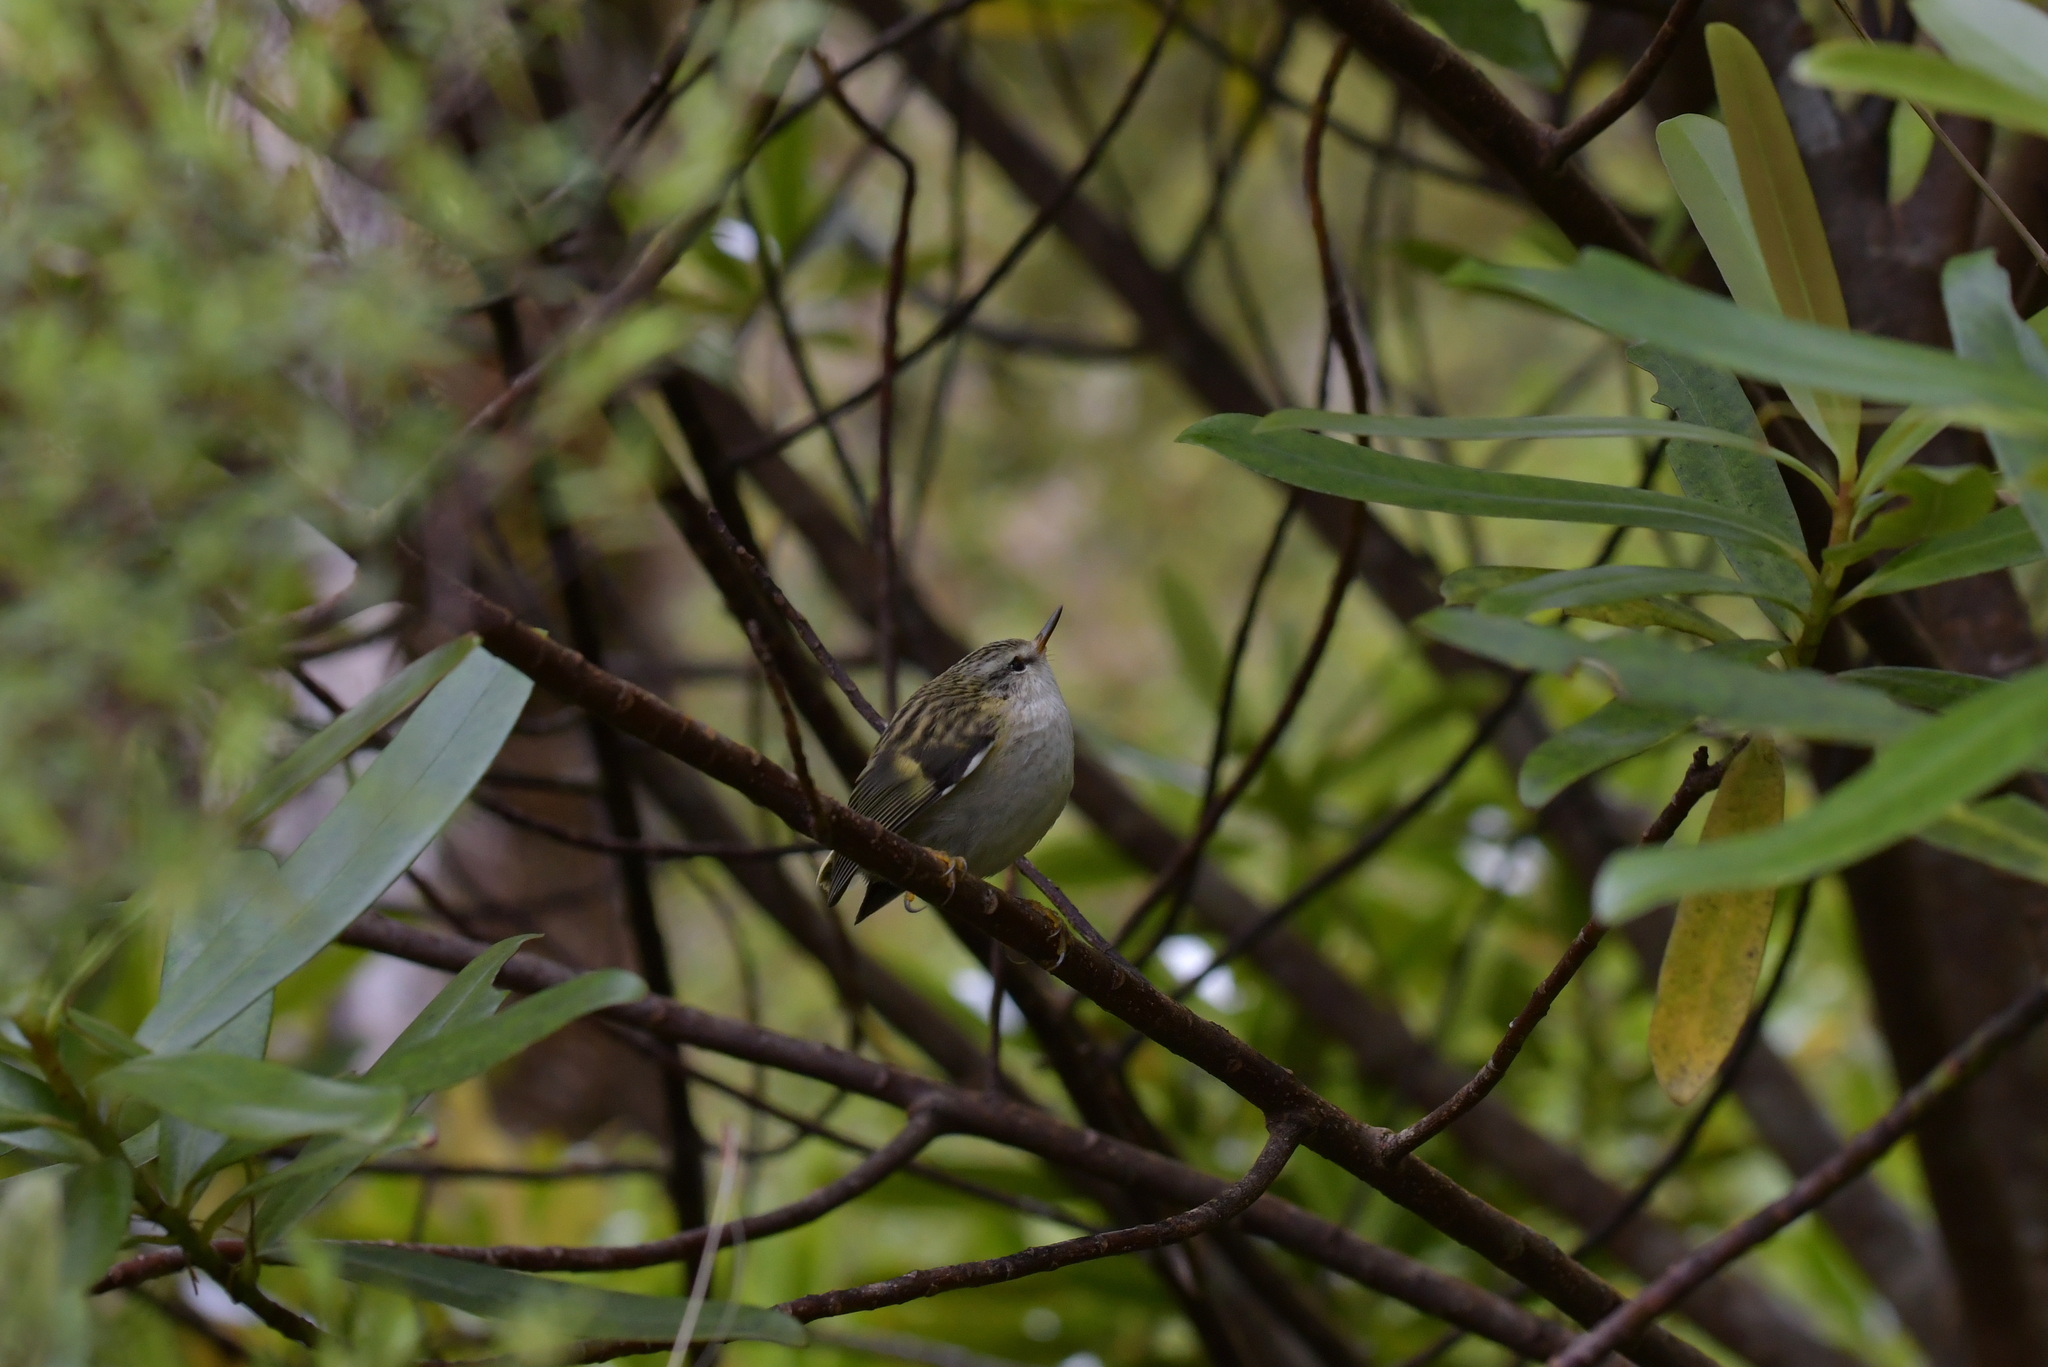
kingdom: Animalia
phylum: Chordata
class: Aves
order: Passeriformes
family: Acanthisittidae
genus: Acanthisitta
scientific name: Acanthisitta chloris
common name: Rifleman
